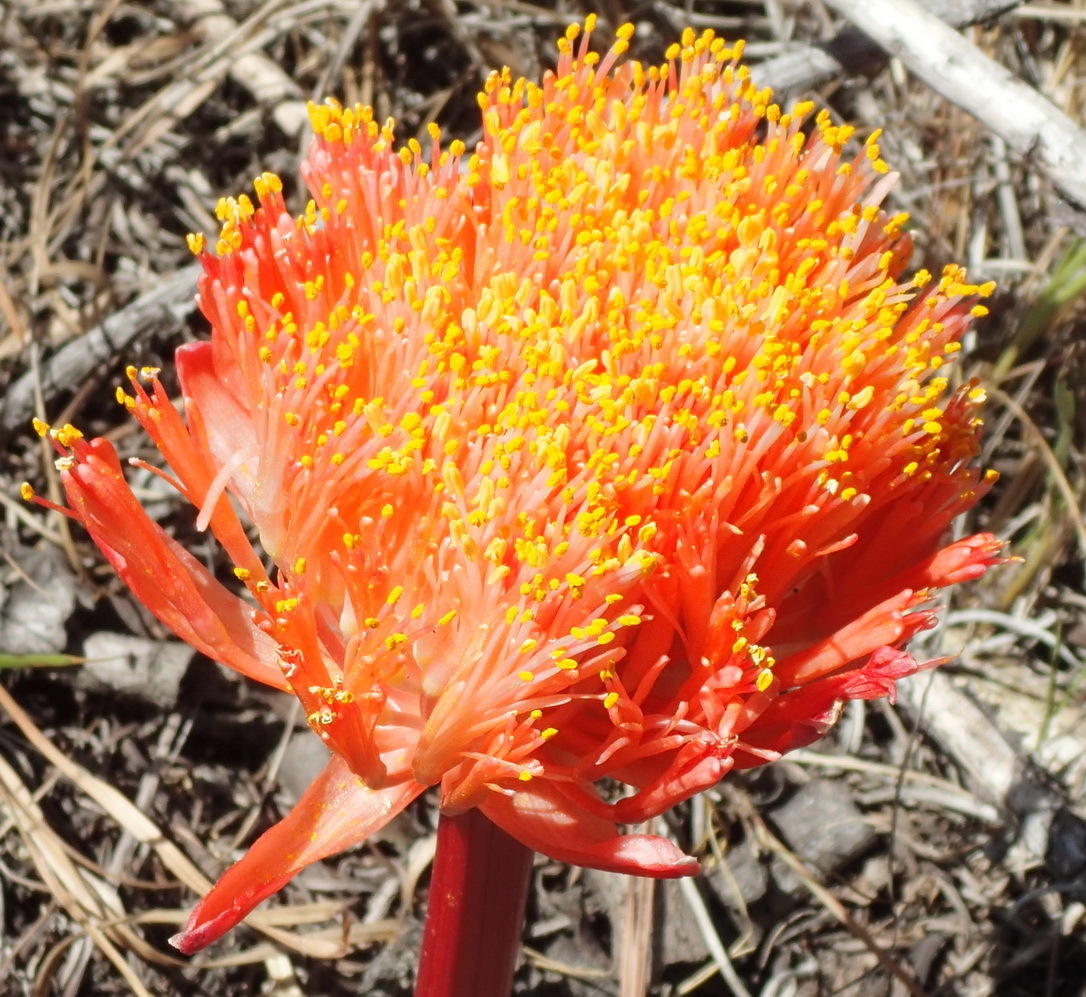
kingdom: Plantae
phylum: Tracheophyta
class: Liliopsida
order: Asparagales
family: Amaryllidaceae
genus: Haemanthus
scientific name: Haemanthus sanguineus
